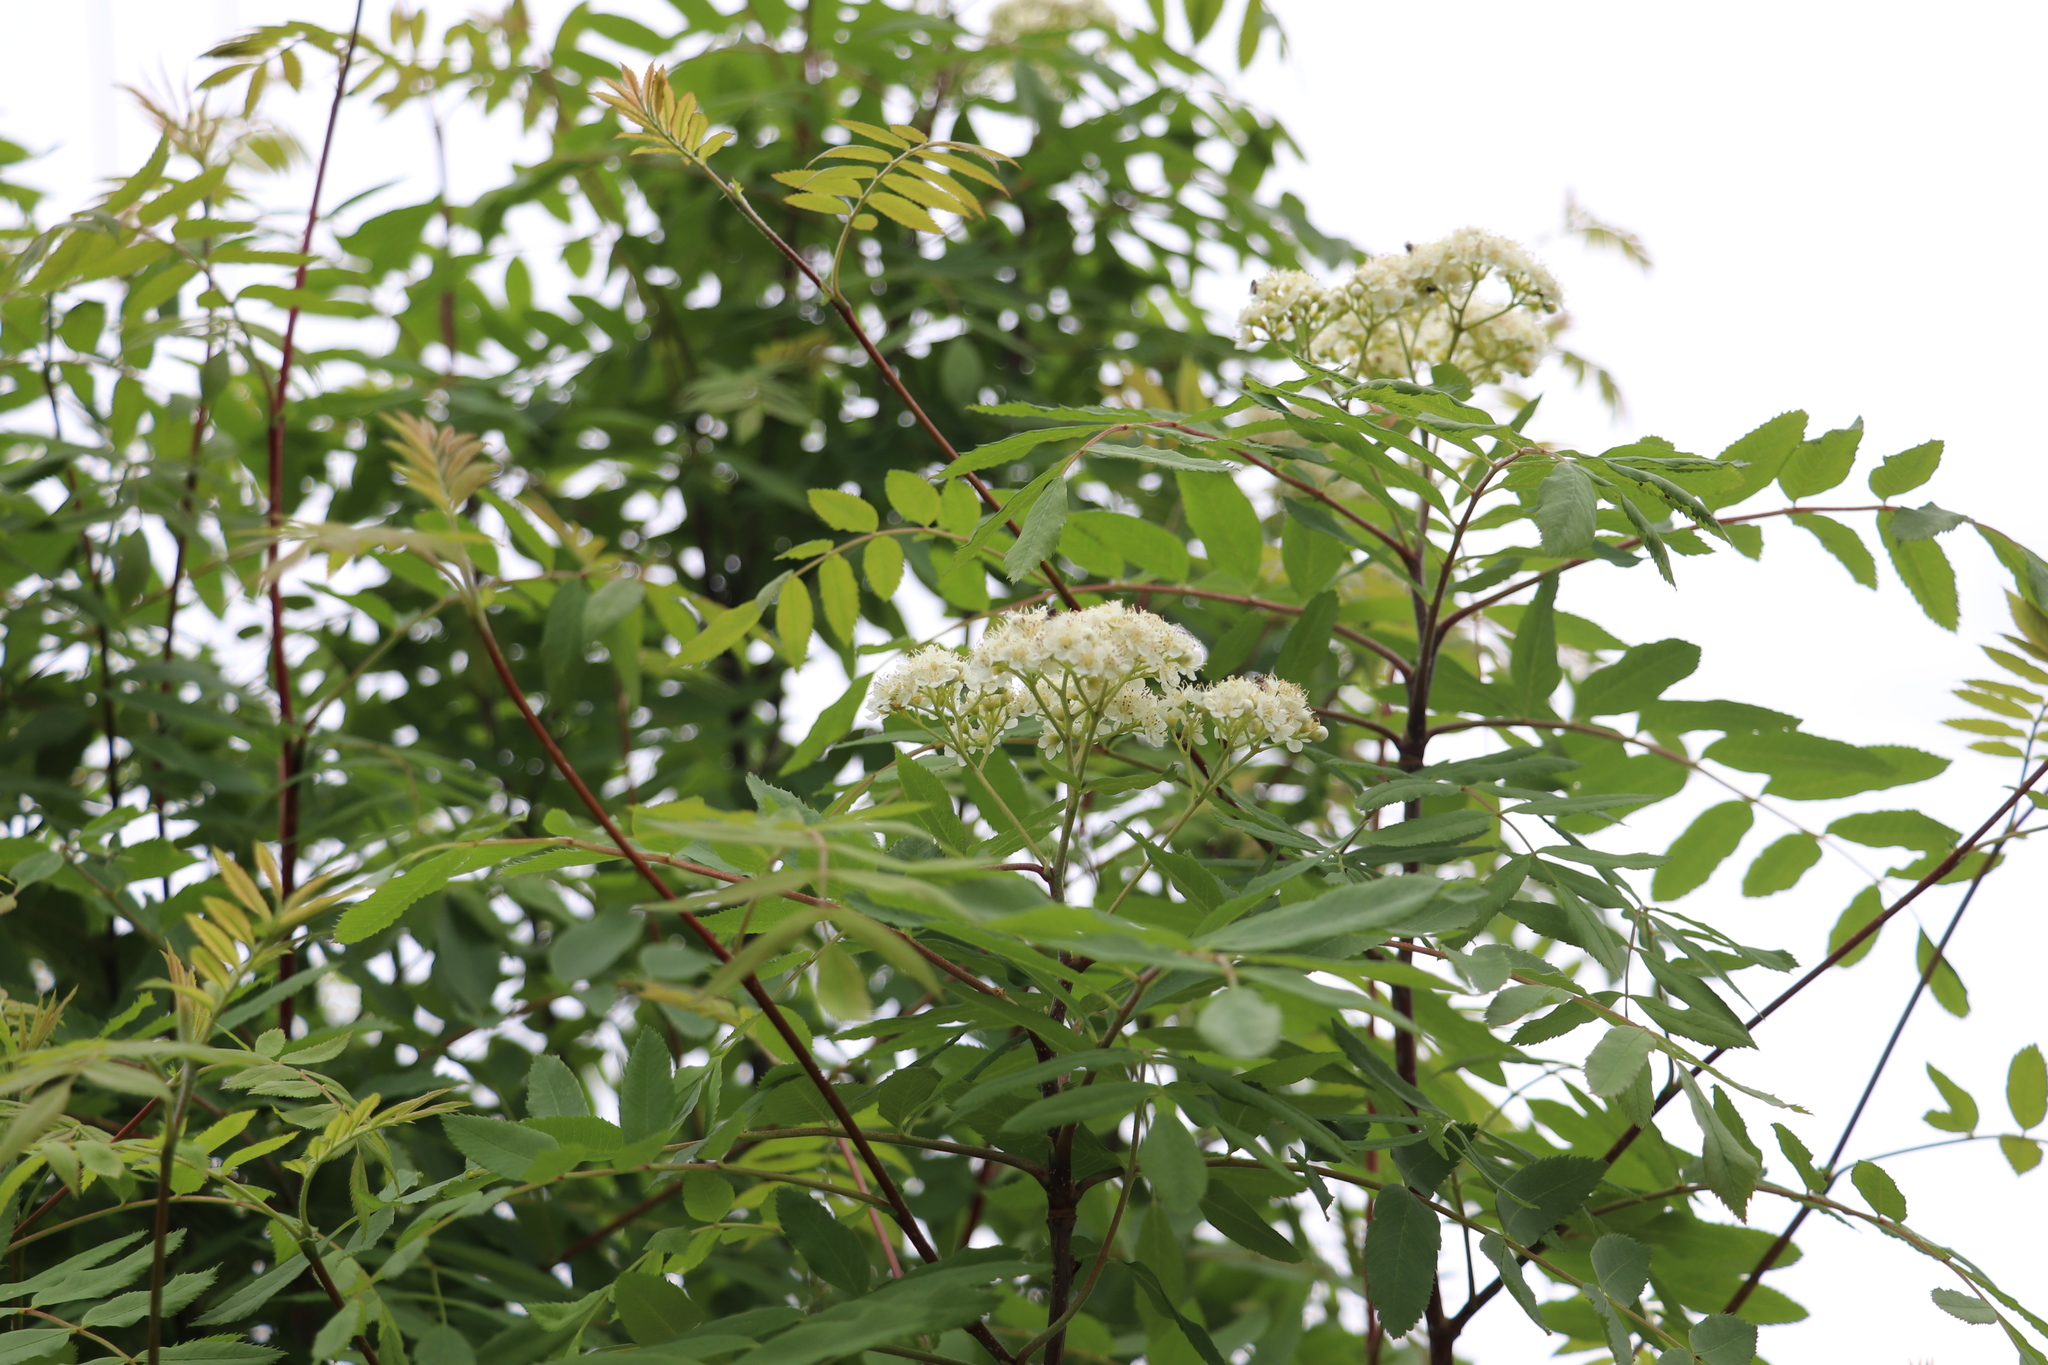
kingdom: Plantae
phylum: Tracheophyta
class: Magnoliopsida
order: Rosales
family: Rosaceae
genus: Sorbus
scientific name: Sorbus aucuparia
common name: Rowan
